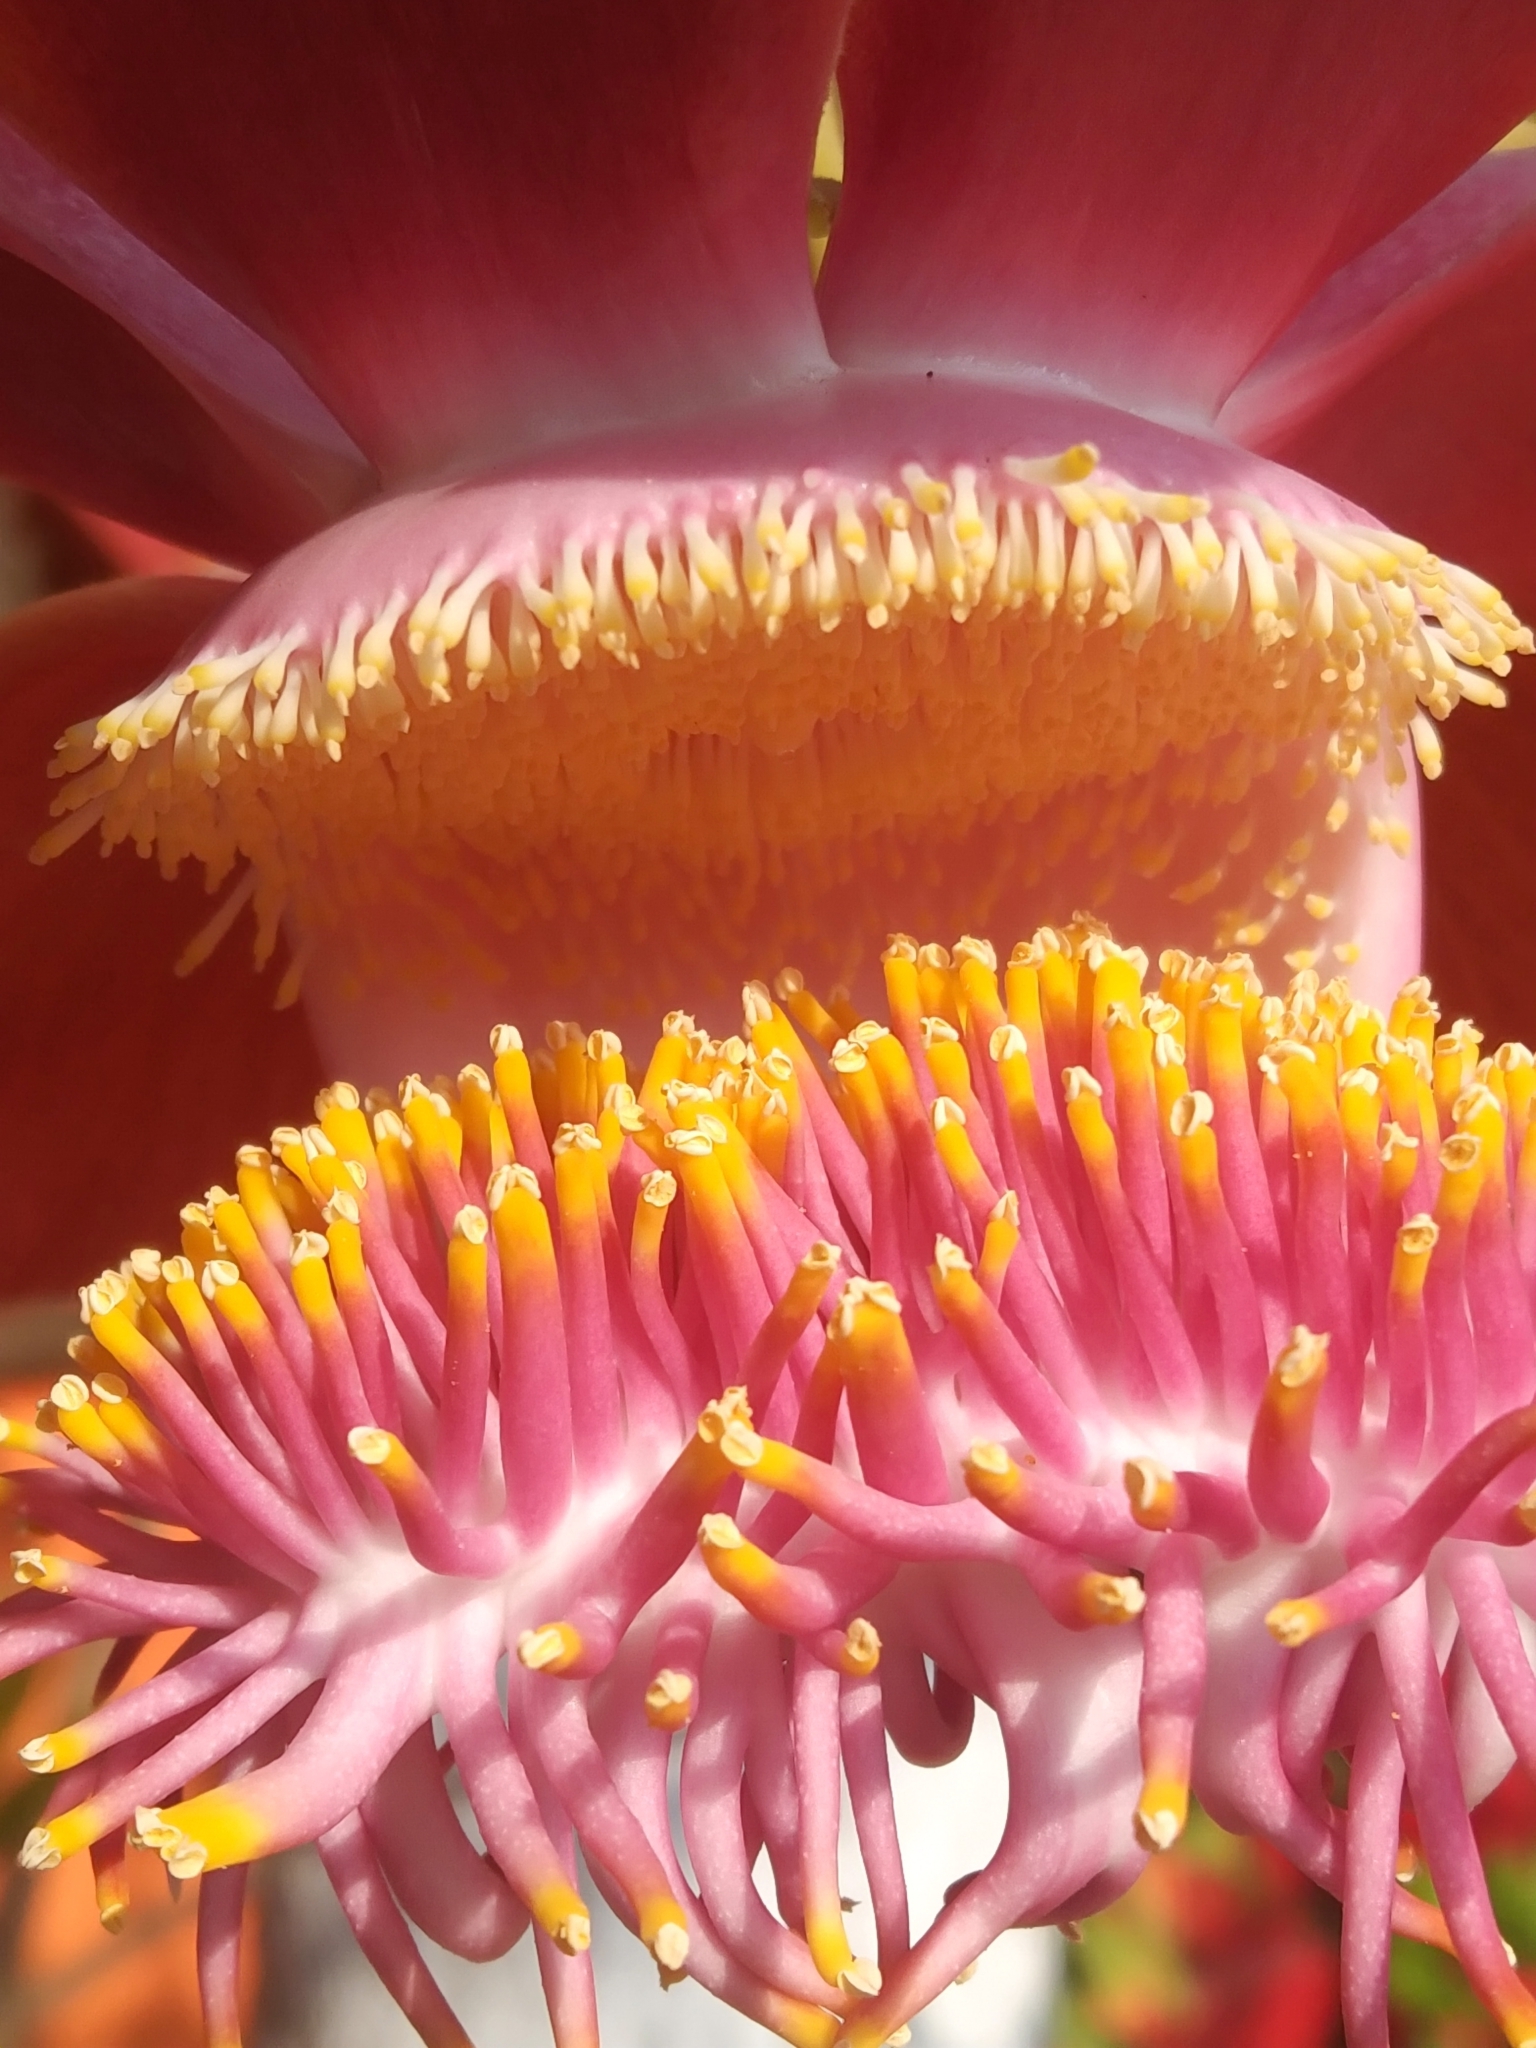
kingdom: Plantae
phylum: Tracheophyta
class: Magnoliopsida
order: Ericales
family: Lecythidaceae
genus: Couroupita
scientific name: Couroupita guianensis
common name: Cannonball tree
